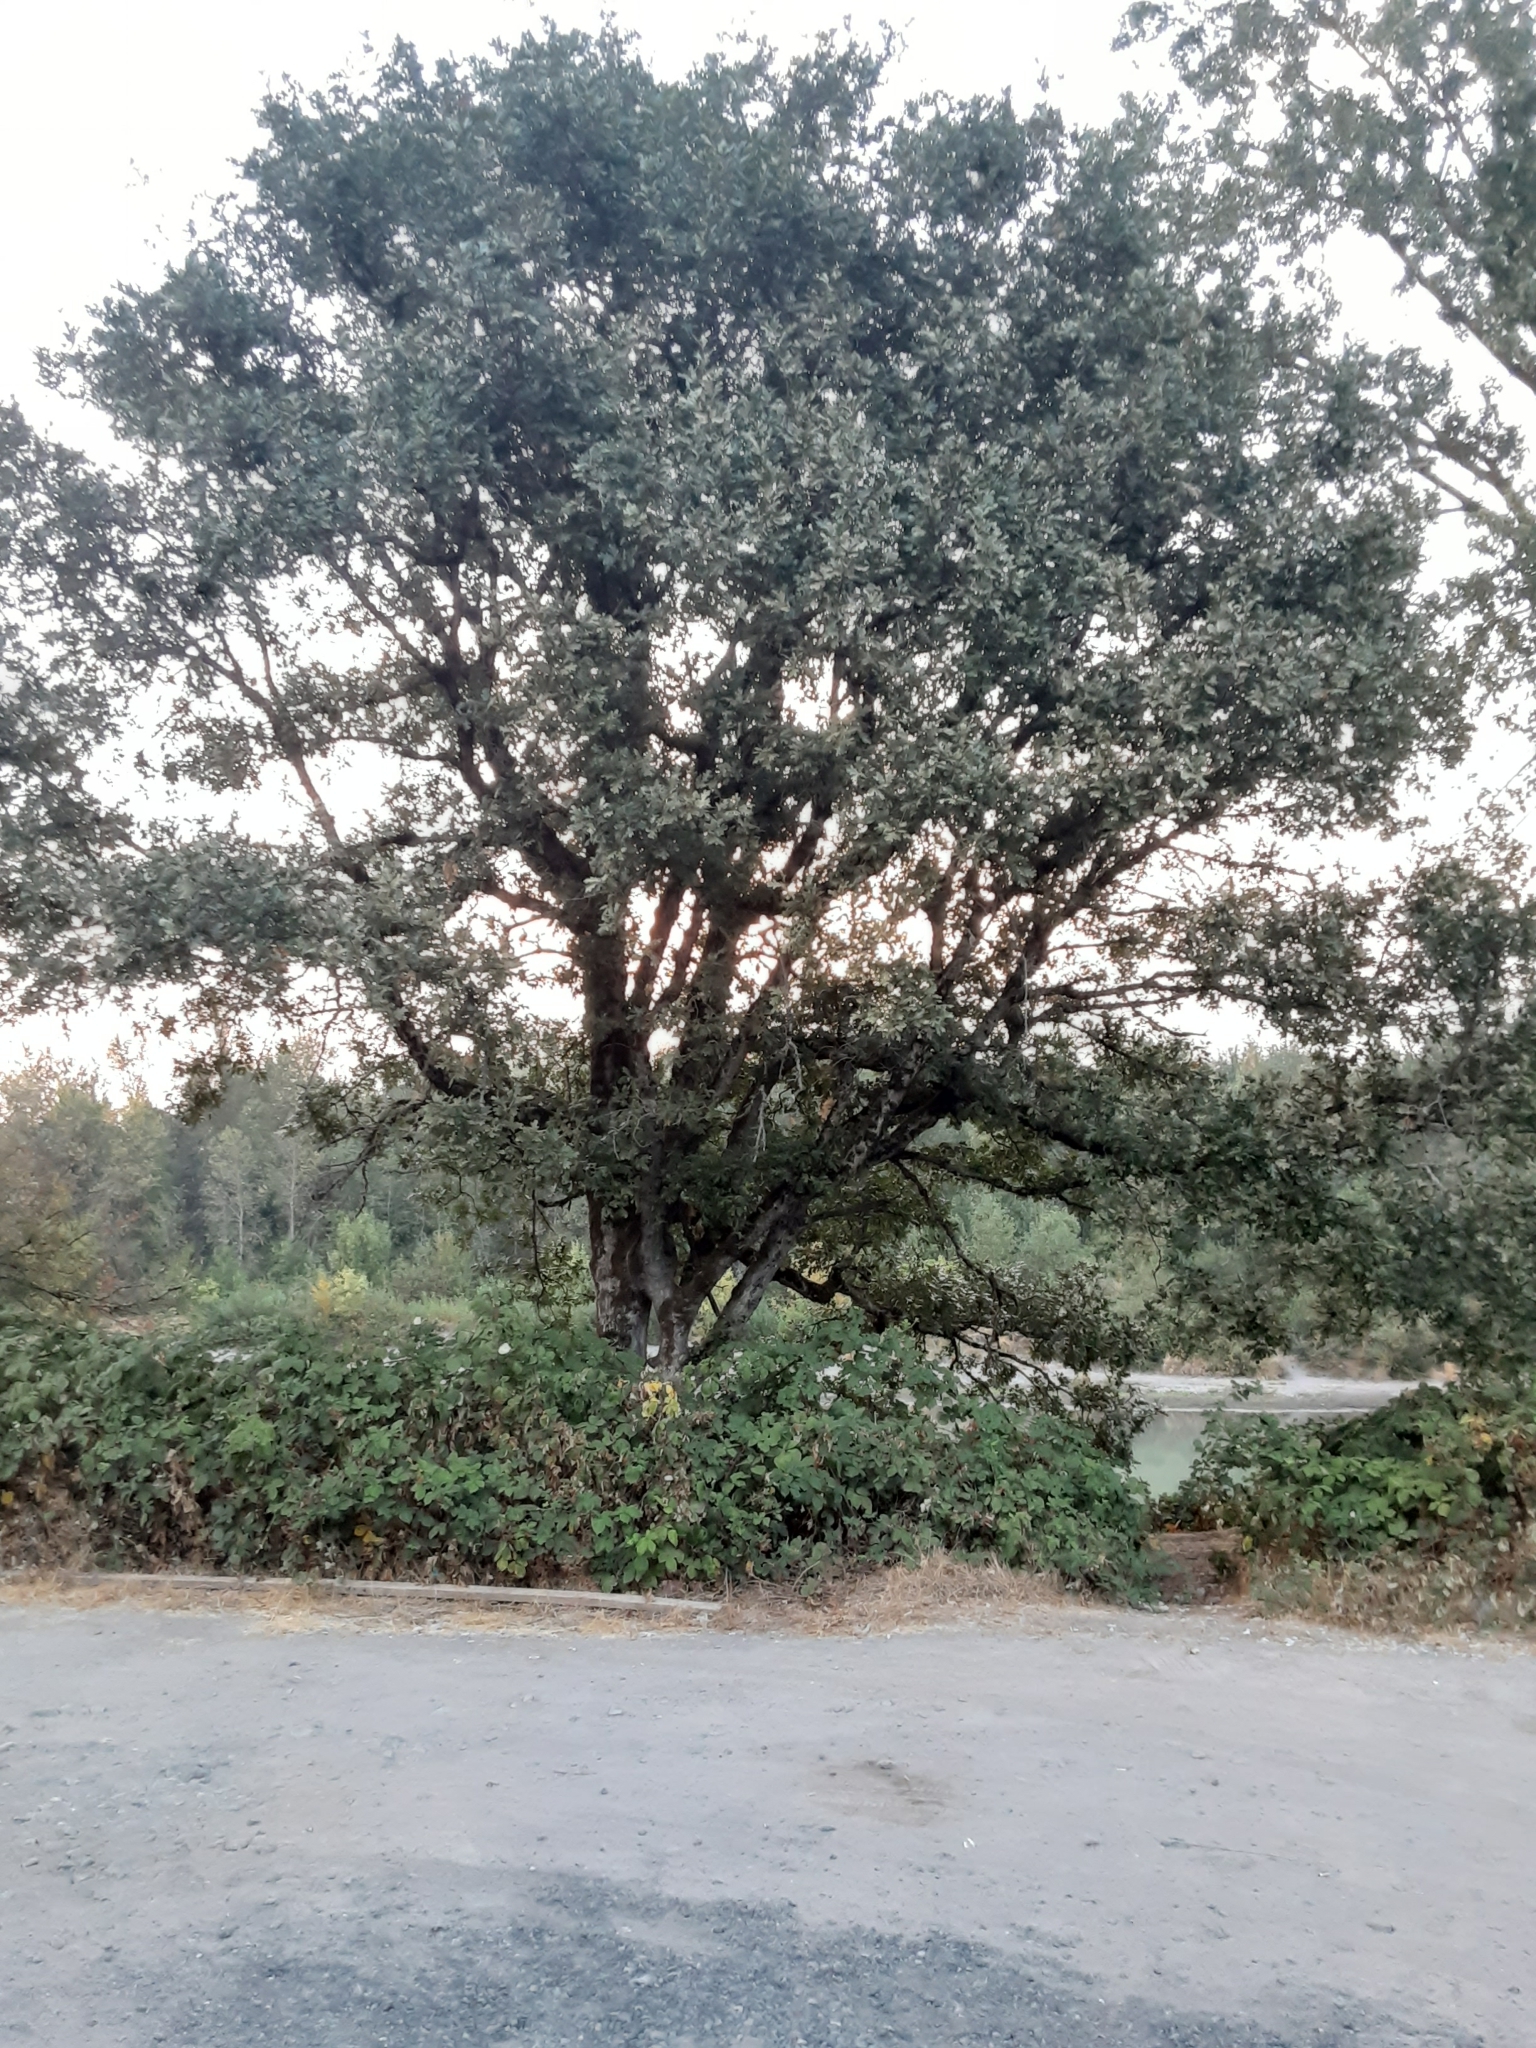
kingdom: Plantae
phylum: Tracheophyta
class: Magnoliopsida
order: Fagales
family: Fagaceae
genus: Quercus
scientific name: Quercus garryana
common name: Garry oak
